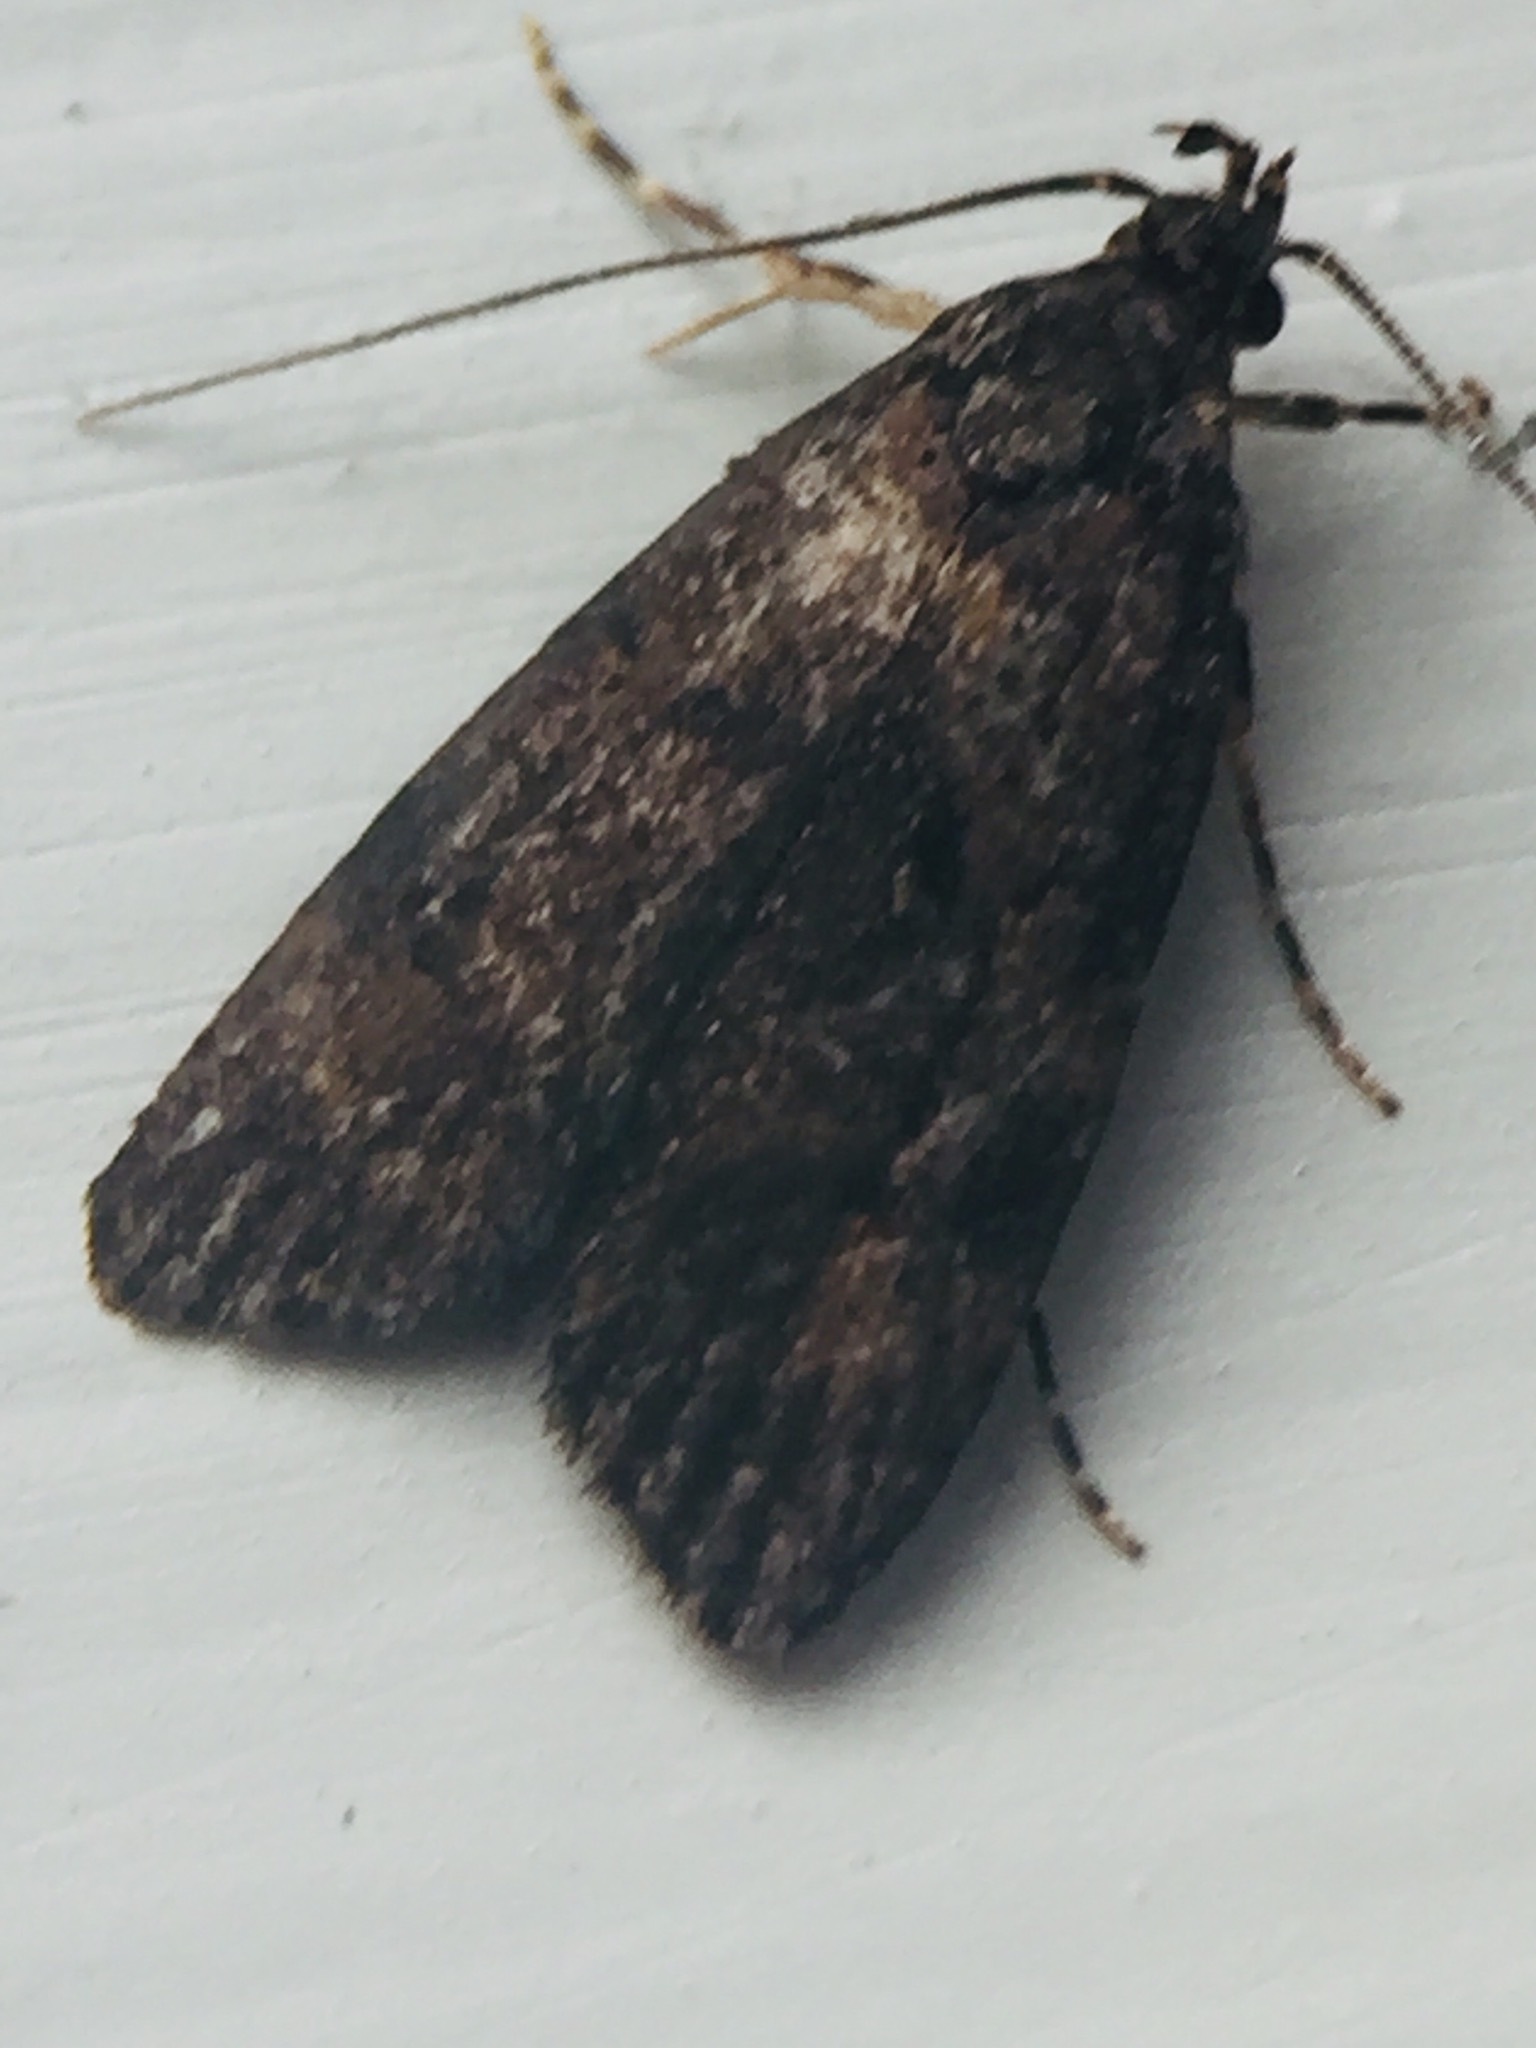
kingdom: Animalia
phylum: Arthropoda
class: Insecta
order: Lepidoptera
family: Oecophoridae
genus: Izatha
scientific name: Izatha austera
